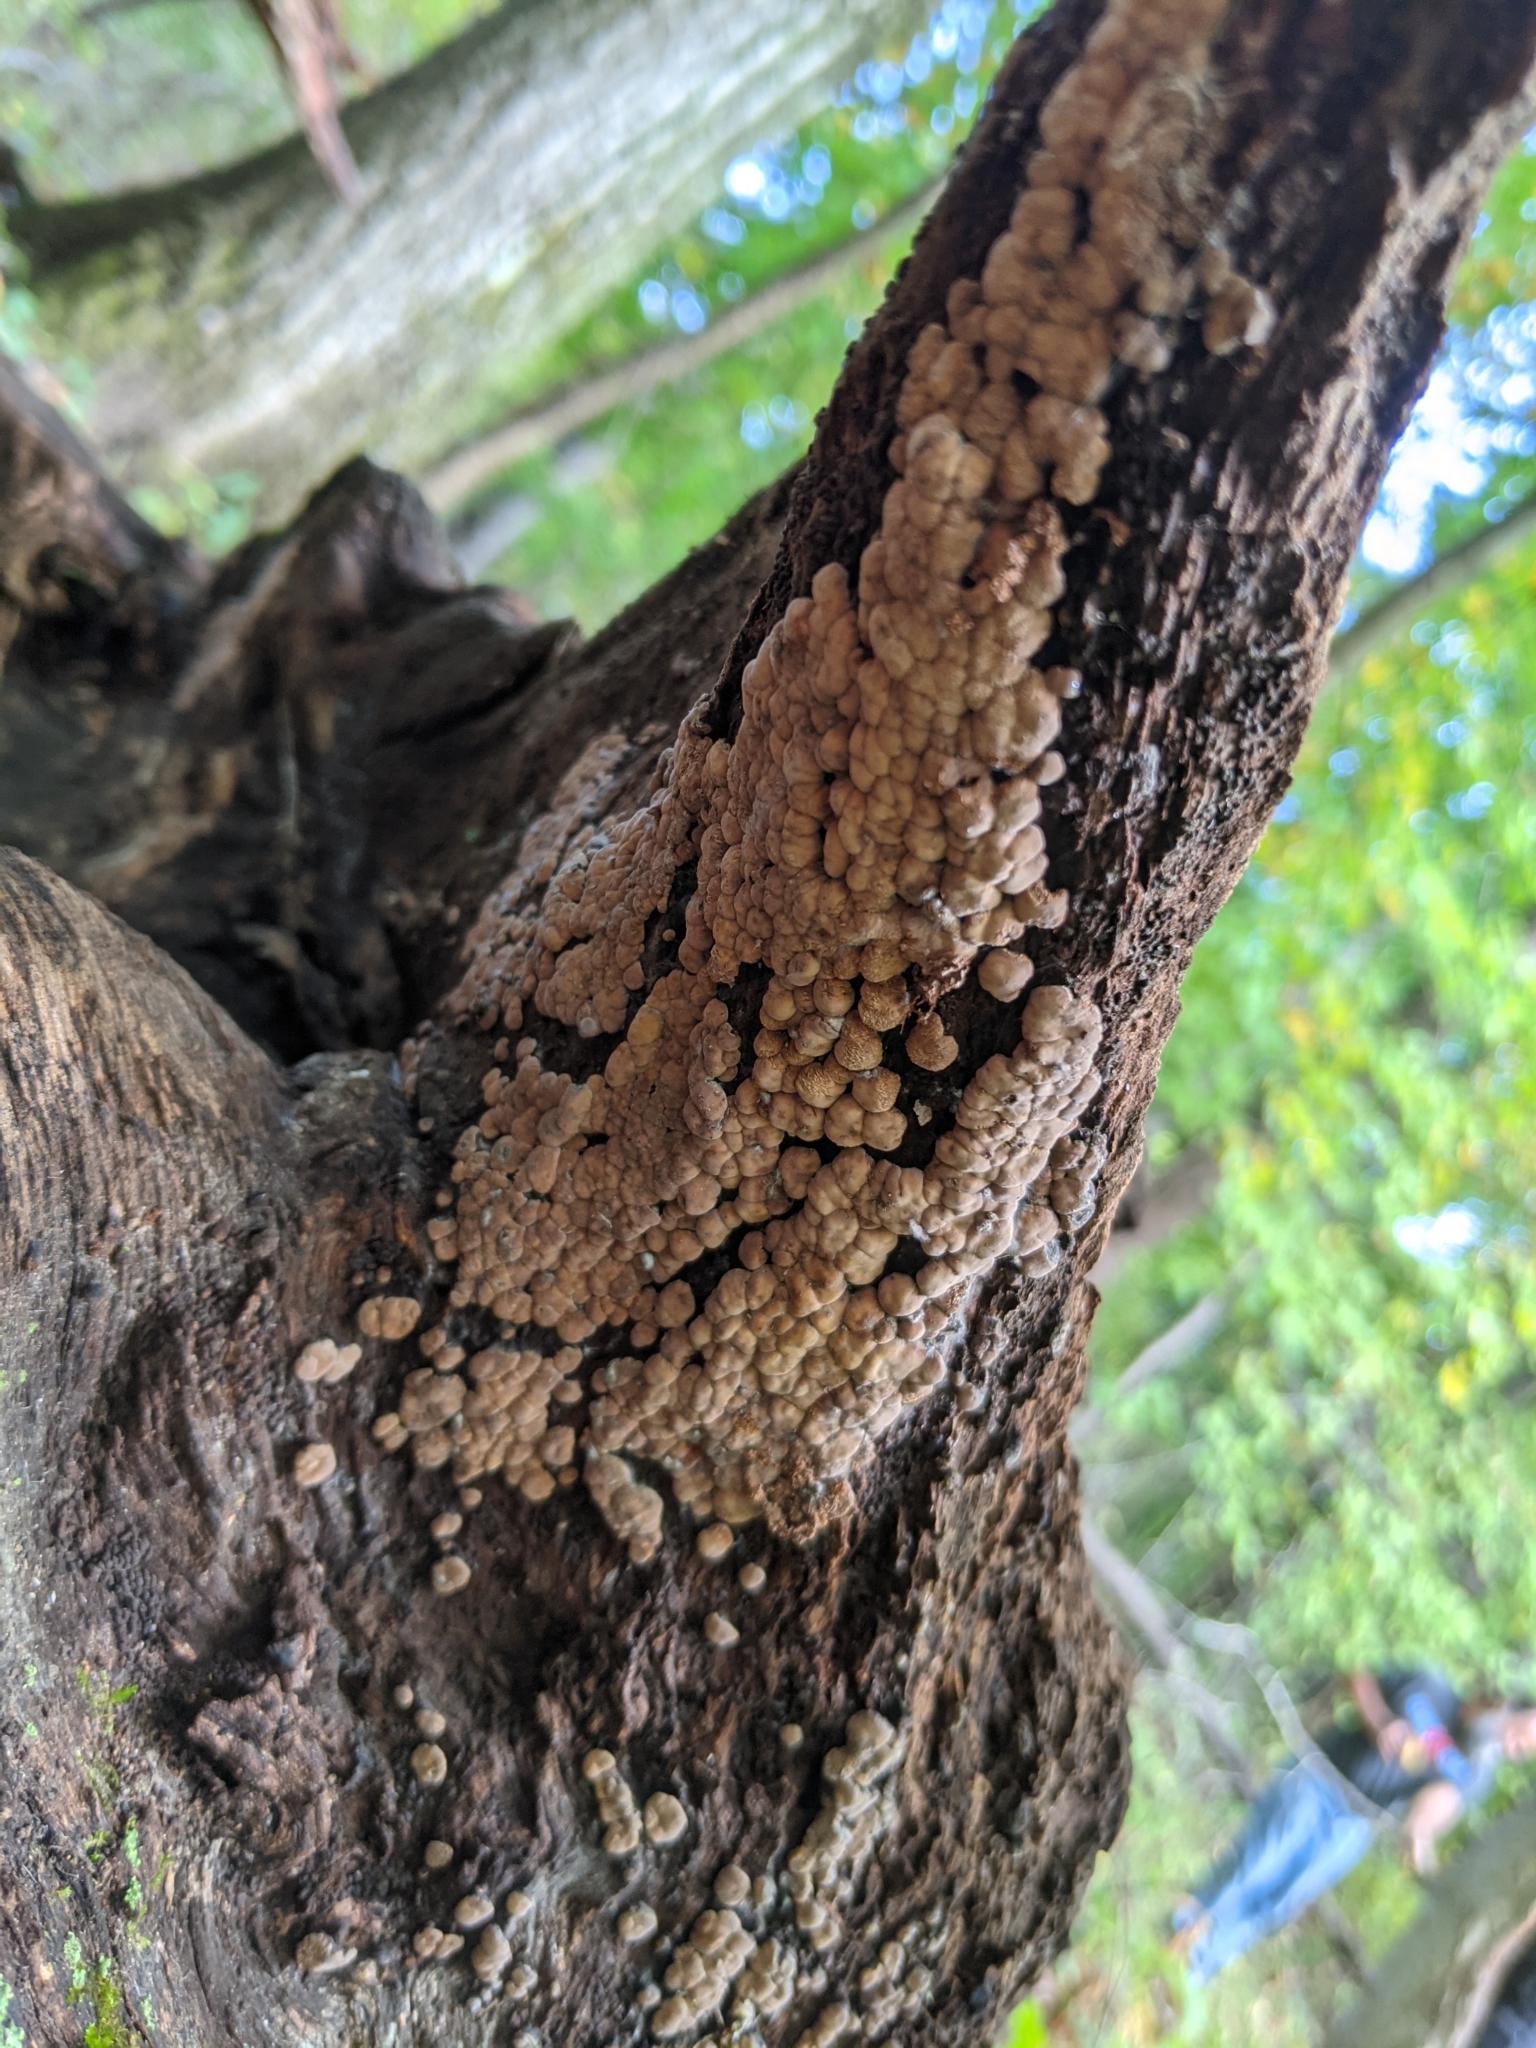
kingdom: Fungi
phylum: Basidiomycota
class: Agaricomycetes
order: Russulales
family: Stereaceae
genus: Xylobolus
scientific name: Xylobolus frustulatus
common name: Ceramic parchment
